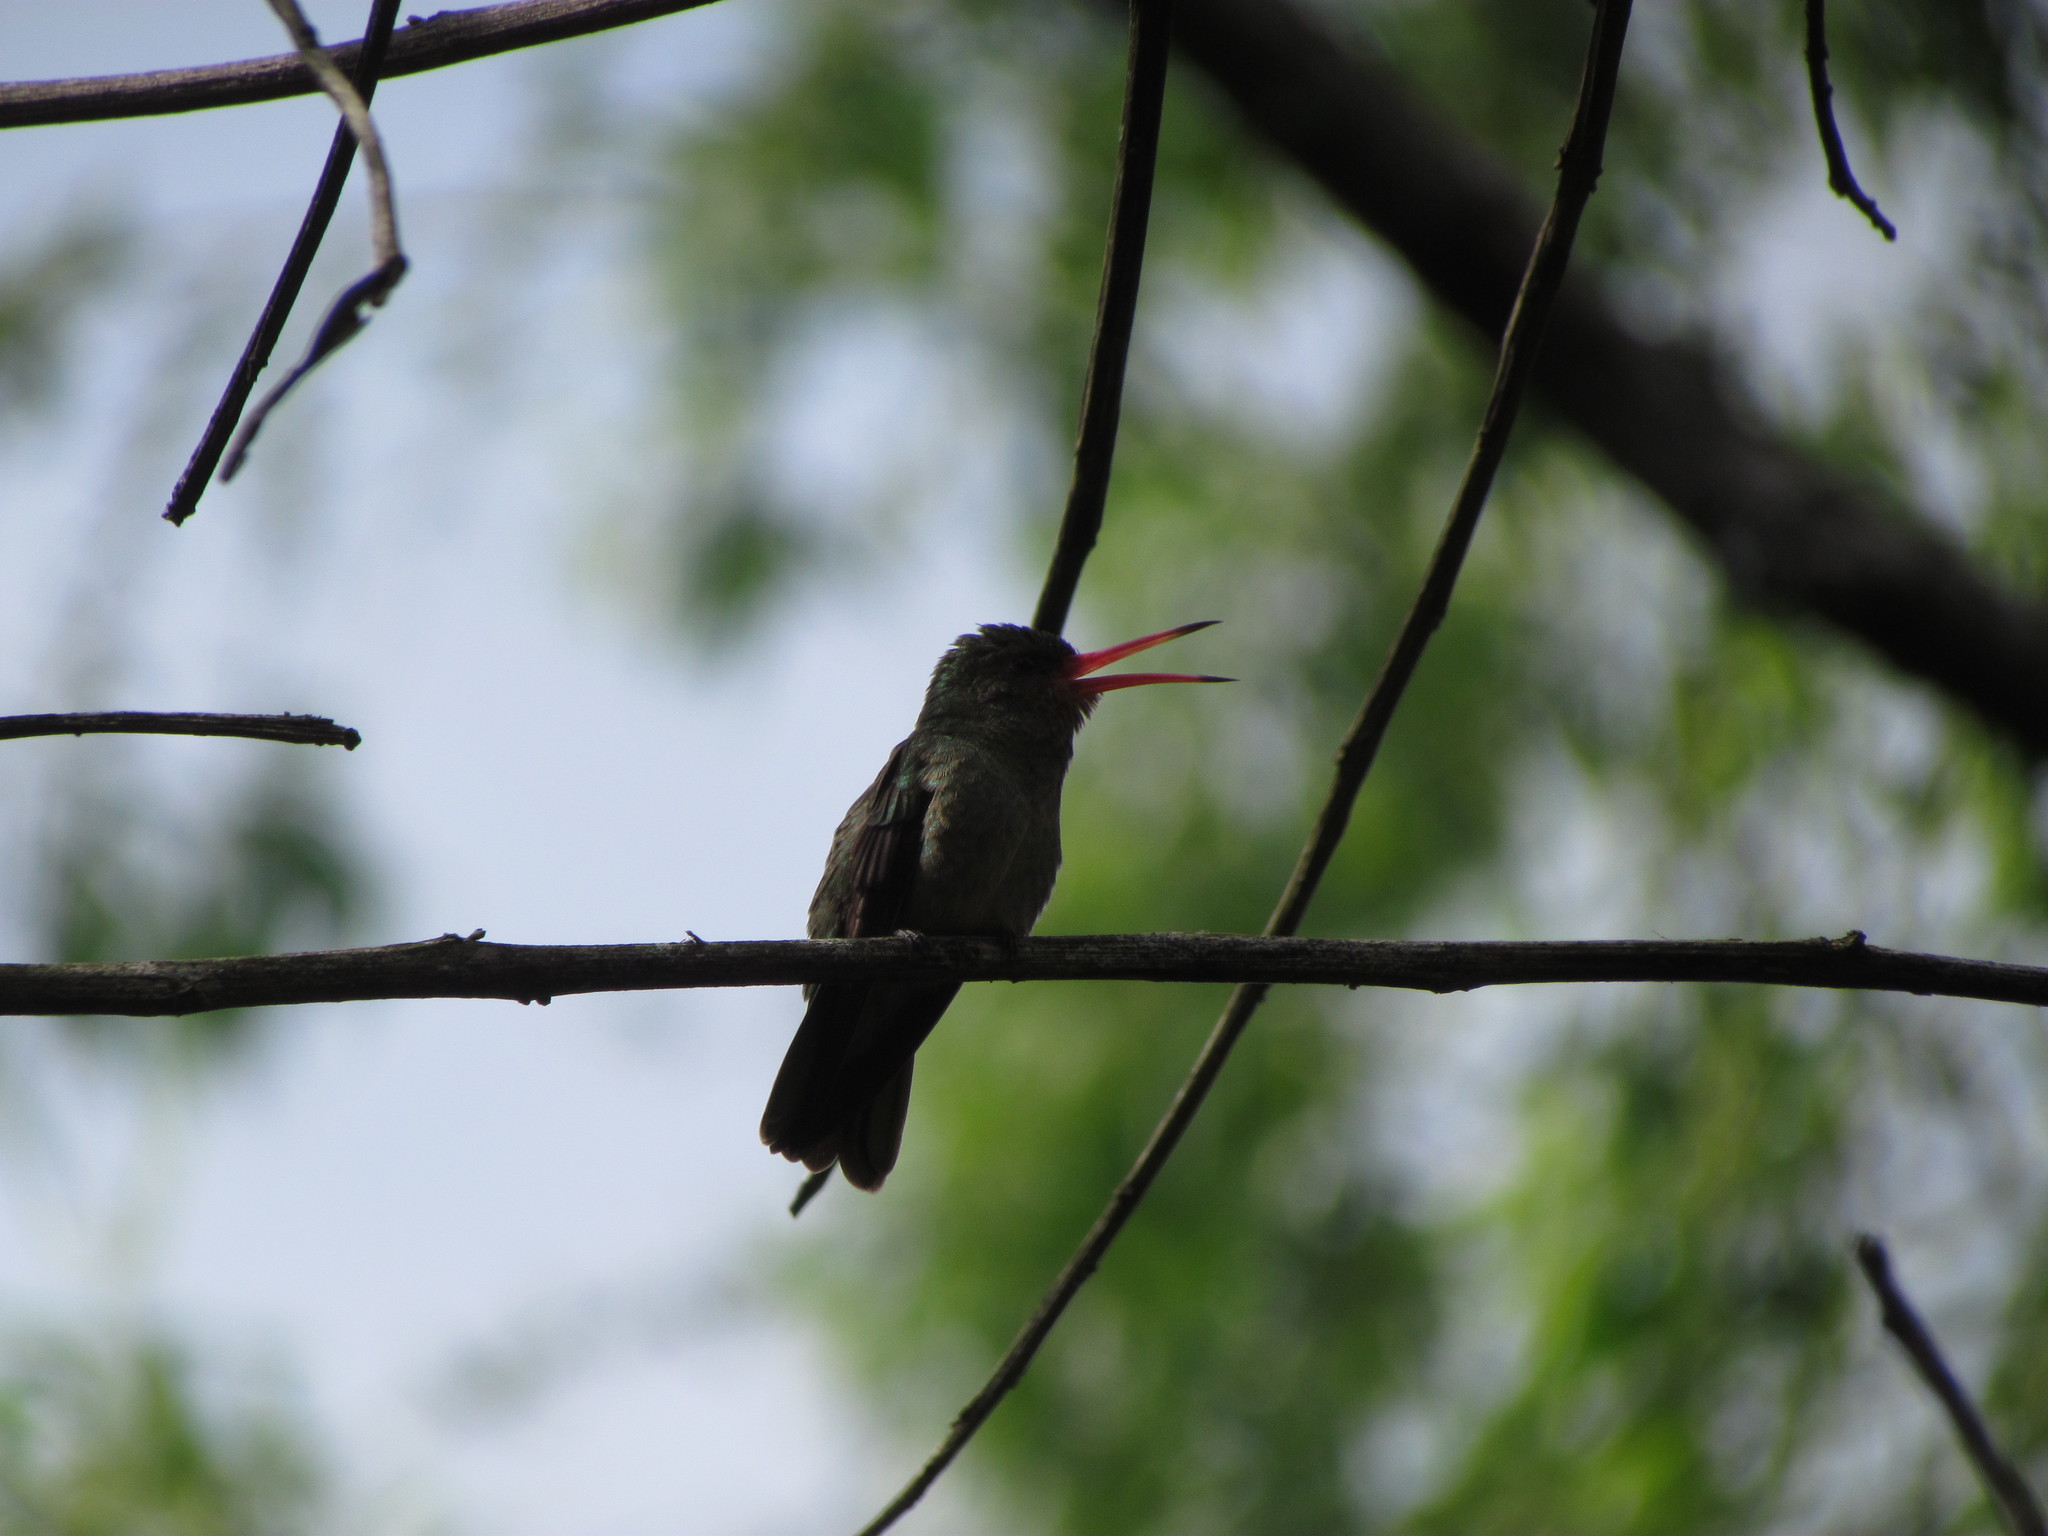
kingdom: Animalia
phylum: Chordata
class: Aves
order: Apodiformes
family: Trochilidae
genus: Chlorostilbon
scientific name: Chlorostilbon lucidus
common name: Glittering-bellied emerald
